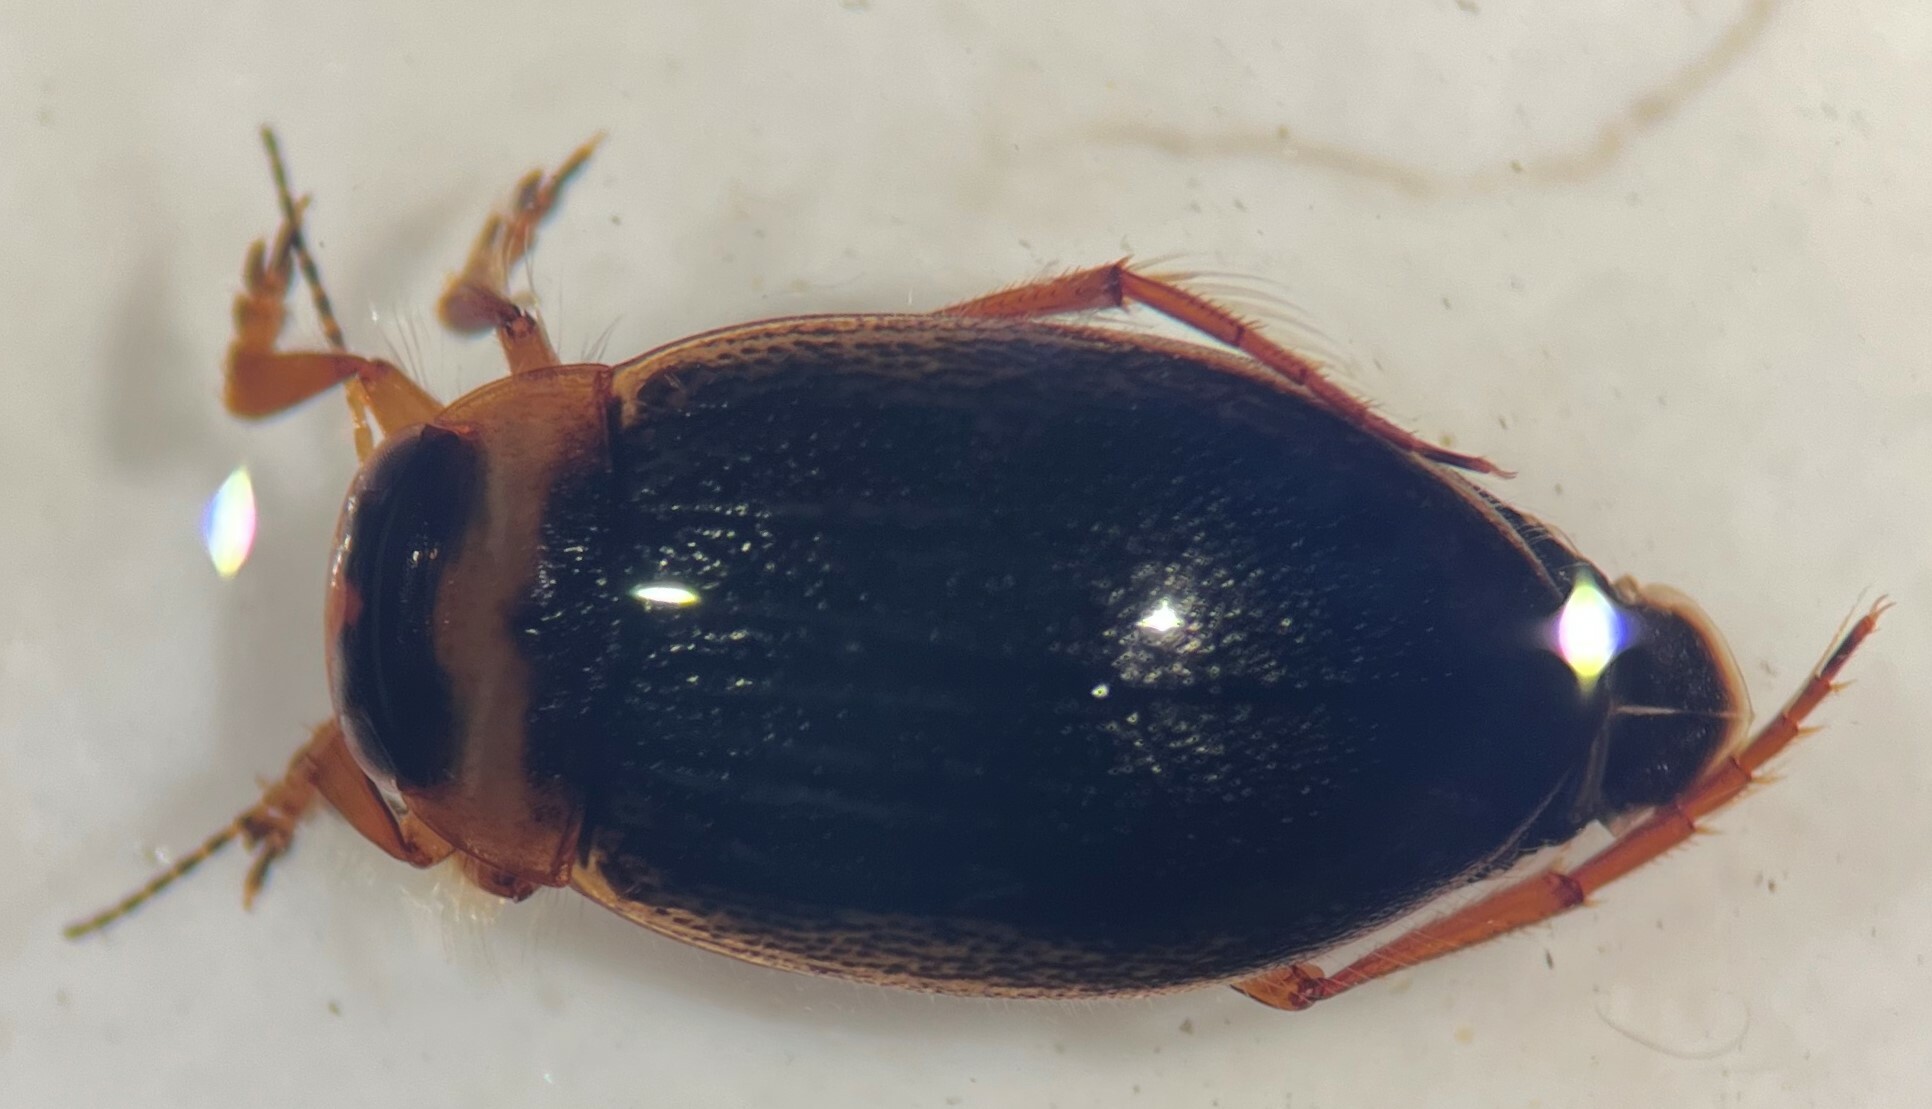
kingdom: Animalia
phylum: Arthropoda
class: Insecta
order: Coleoptera
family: Dytiscidae
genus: Hygrotus
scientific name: Hygrotus impressopunctatus
